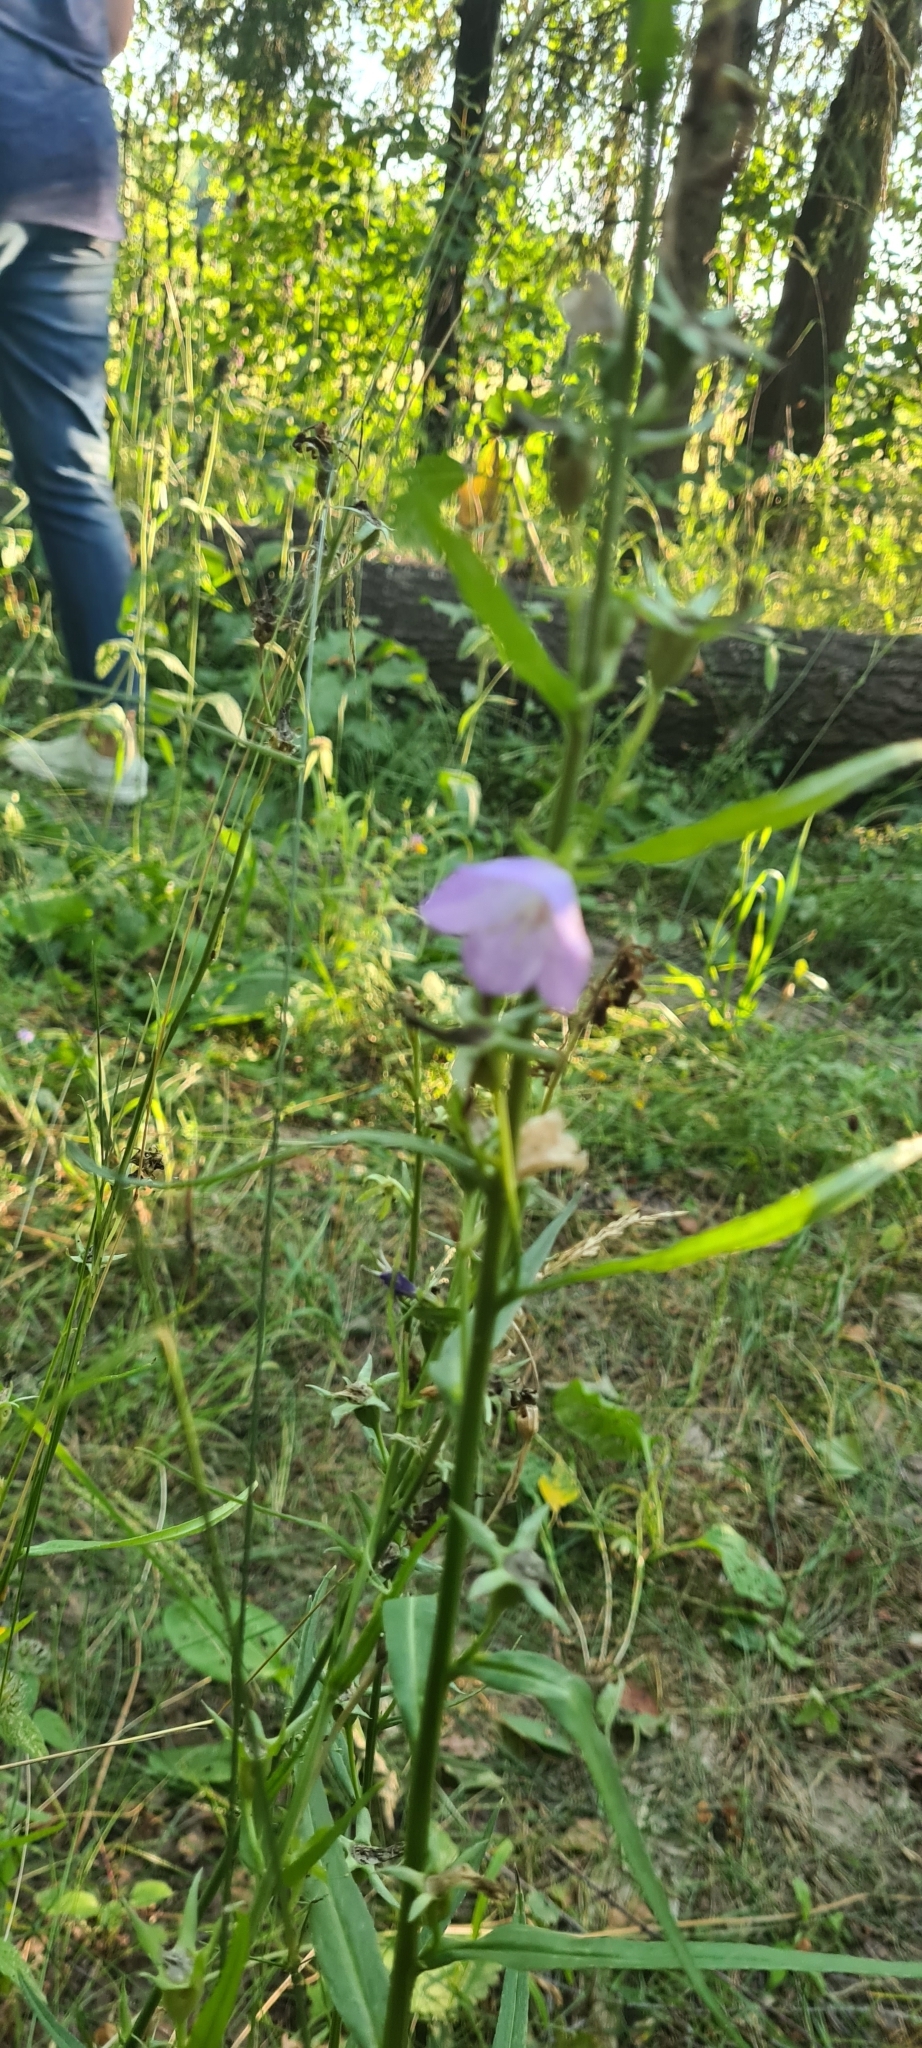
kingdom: Plantae
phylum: Tracheophyta
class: Magnoliopsida
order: Asterales
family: Campanulaceae
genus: Campanula
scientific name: Campanula persicifolia
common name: Peach-leaved bellflower
